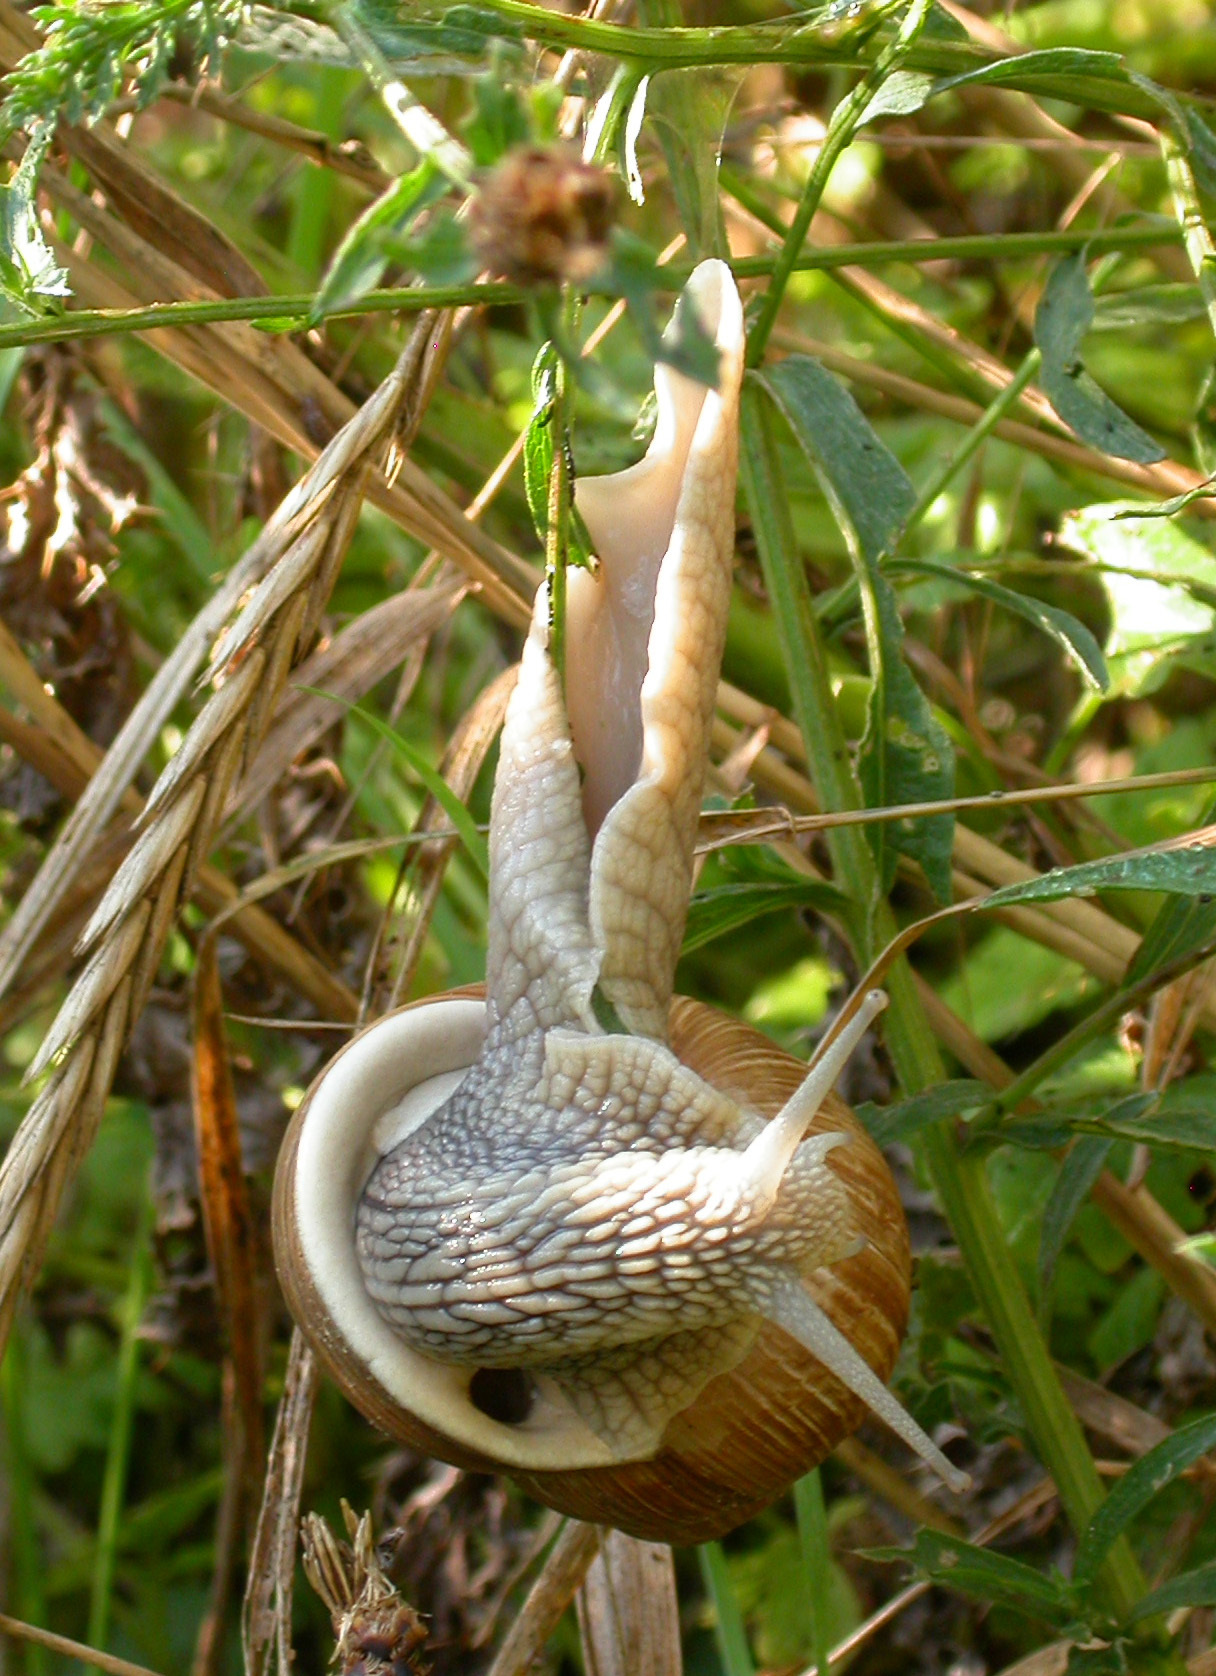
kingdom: Animalia
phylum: Mollusca
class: Gastropoda
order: Stylommatophora
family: Helicidae
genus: Helix
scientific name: Helix pomatia
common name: Roman snail
